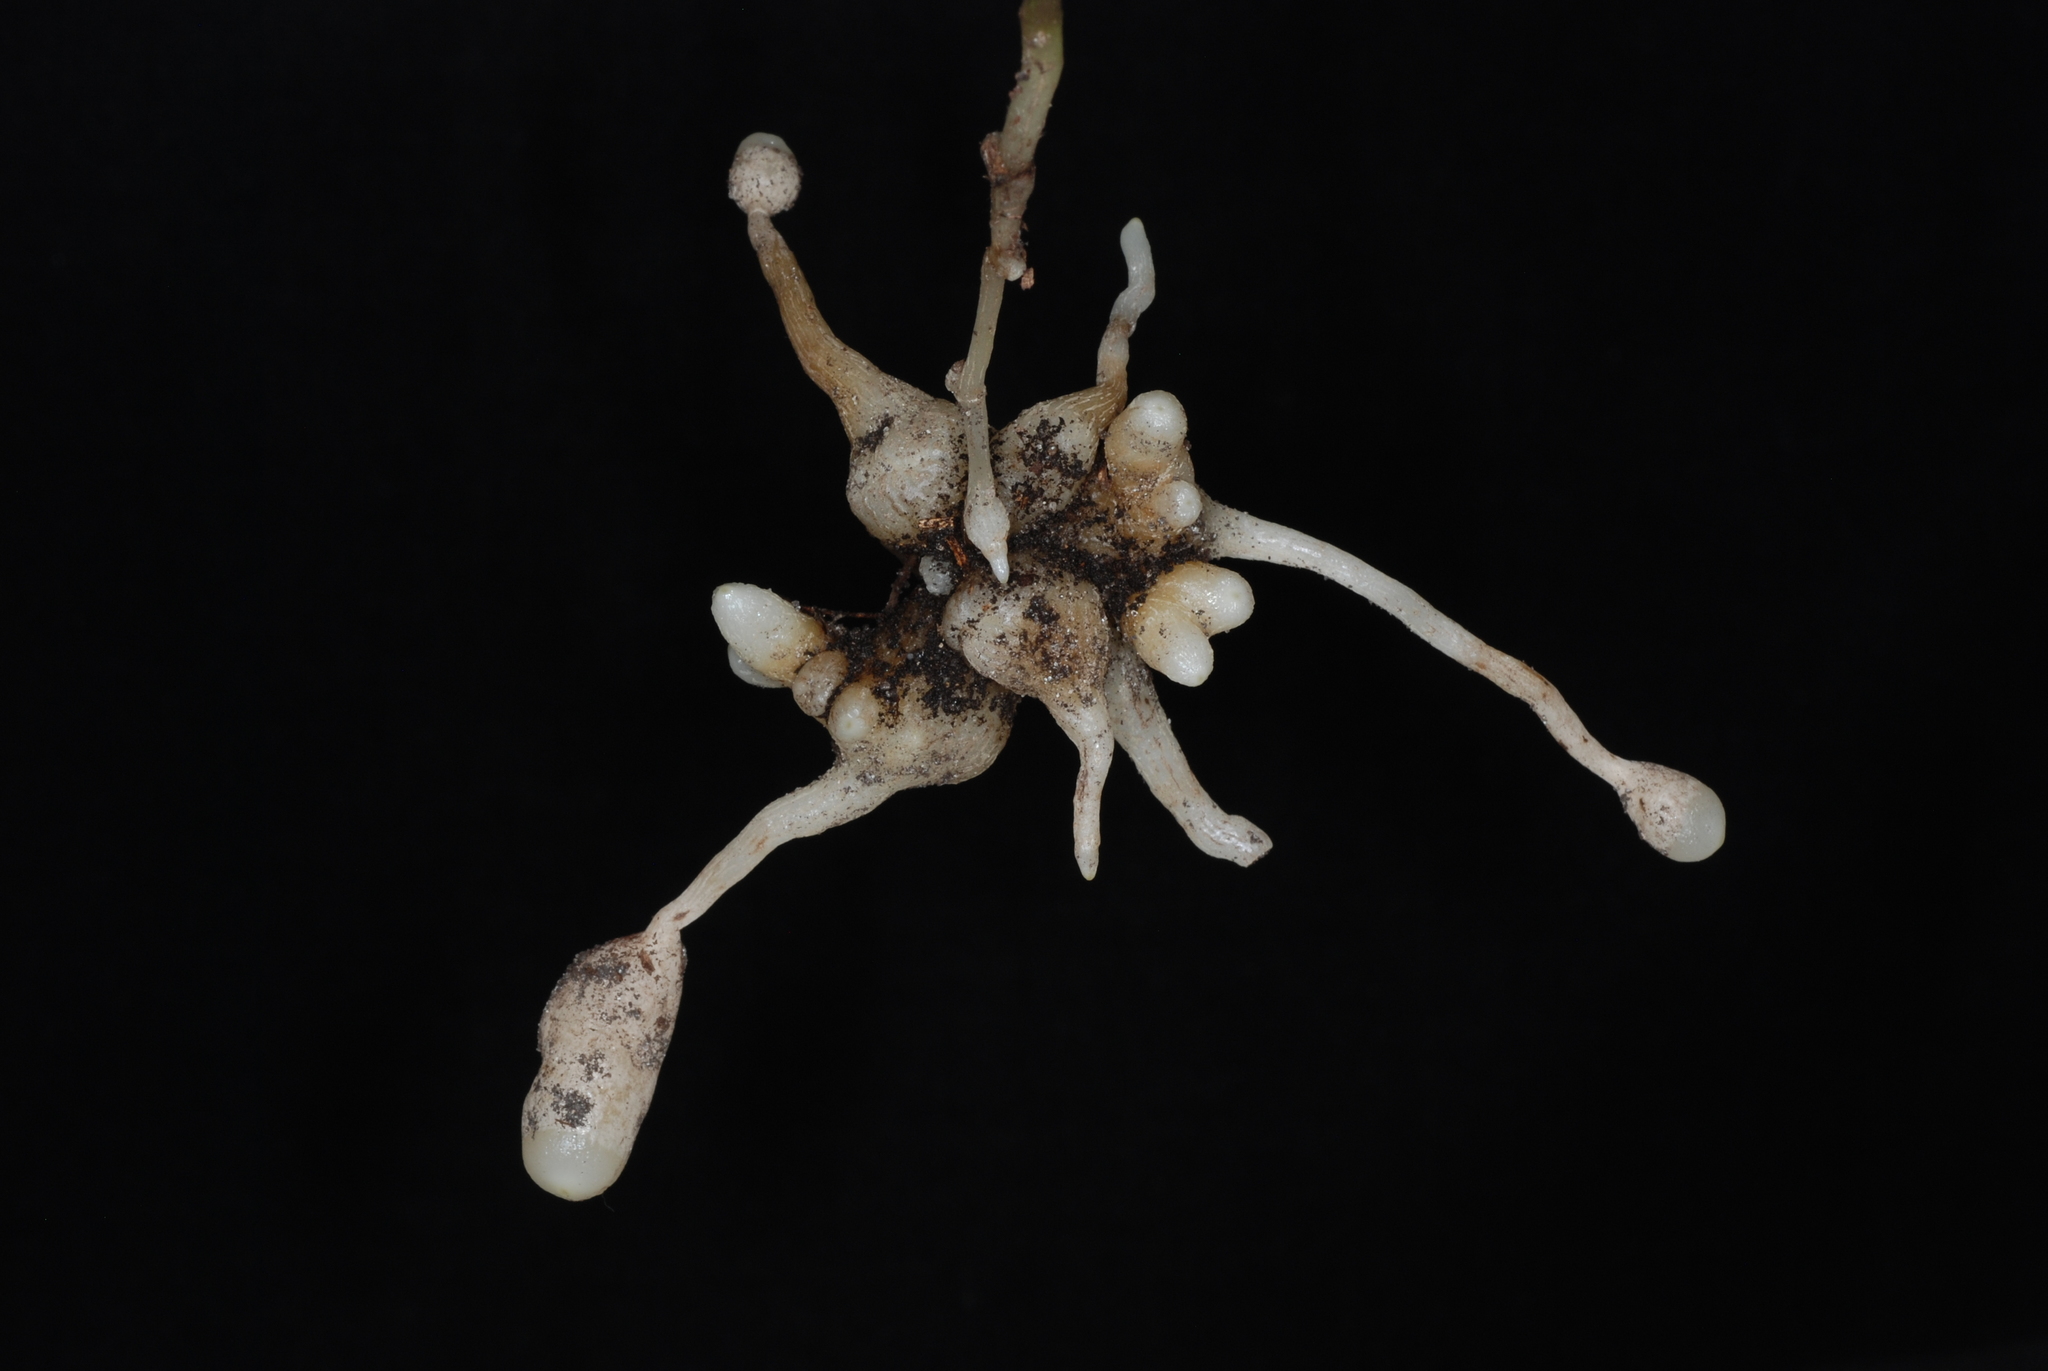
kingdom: Plantae
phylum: Tracheophyta
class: Liliopsida
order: Asparagales
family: Orchidaceae
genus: Triphora
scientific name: Triphora gentianoides
